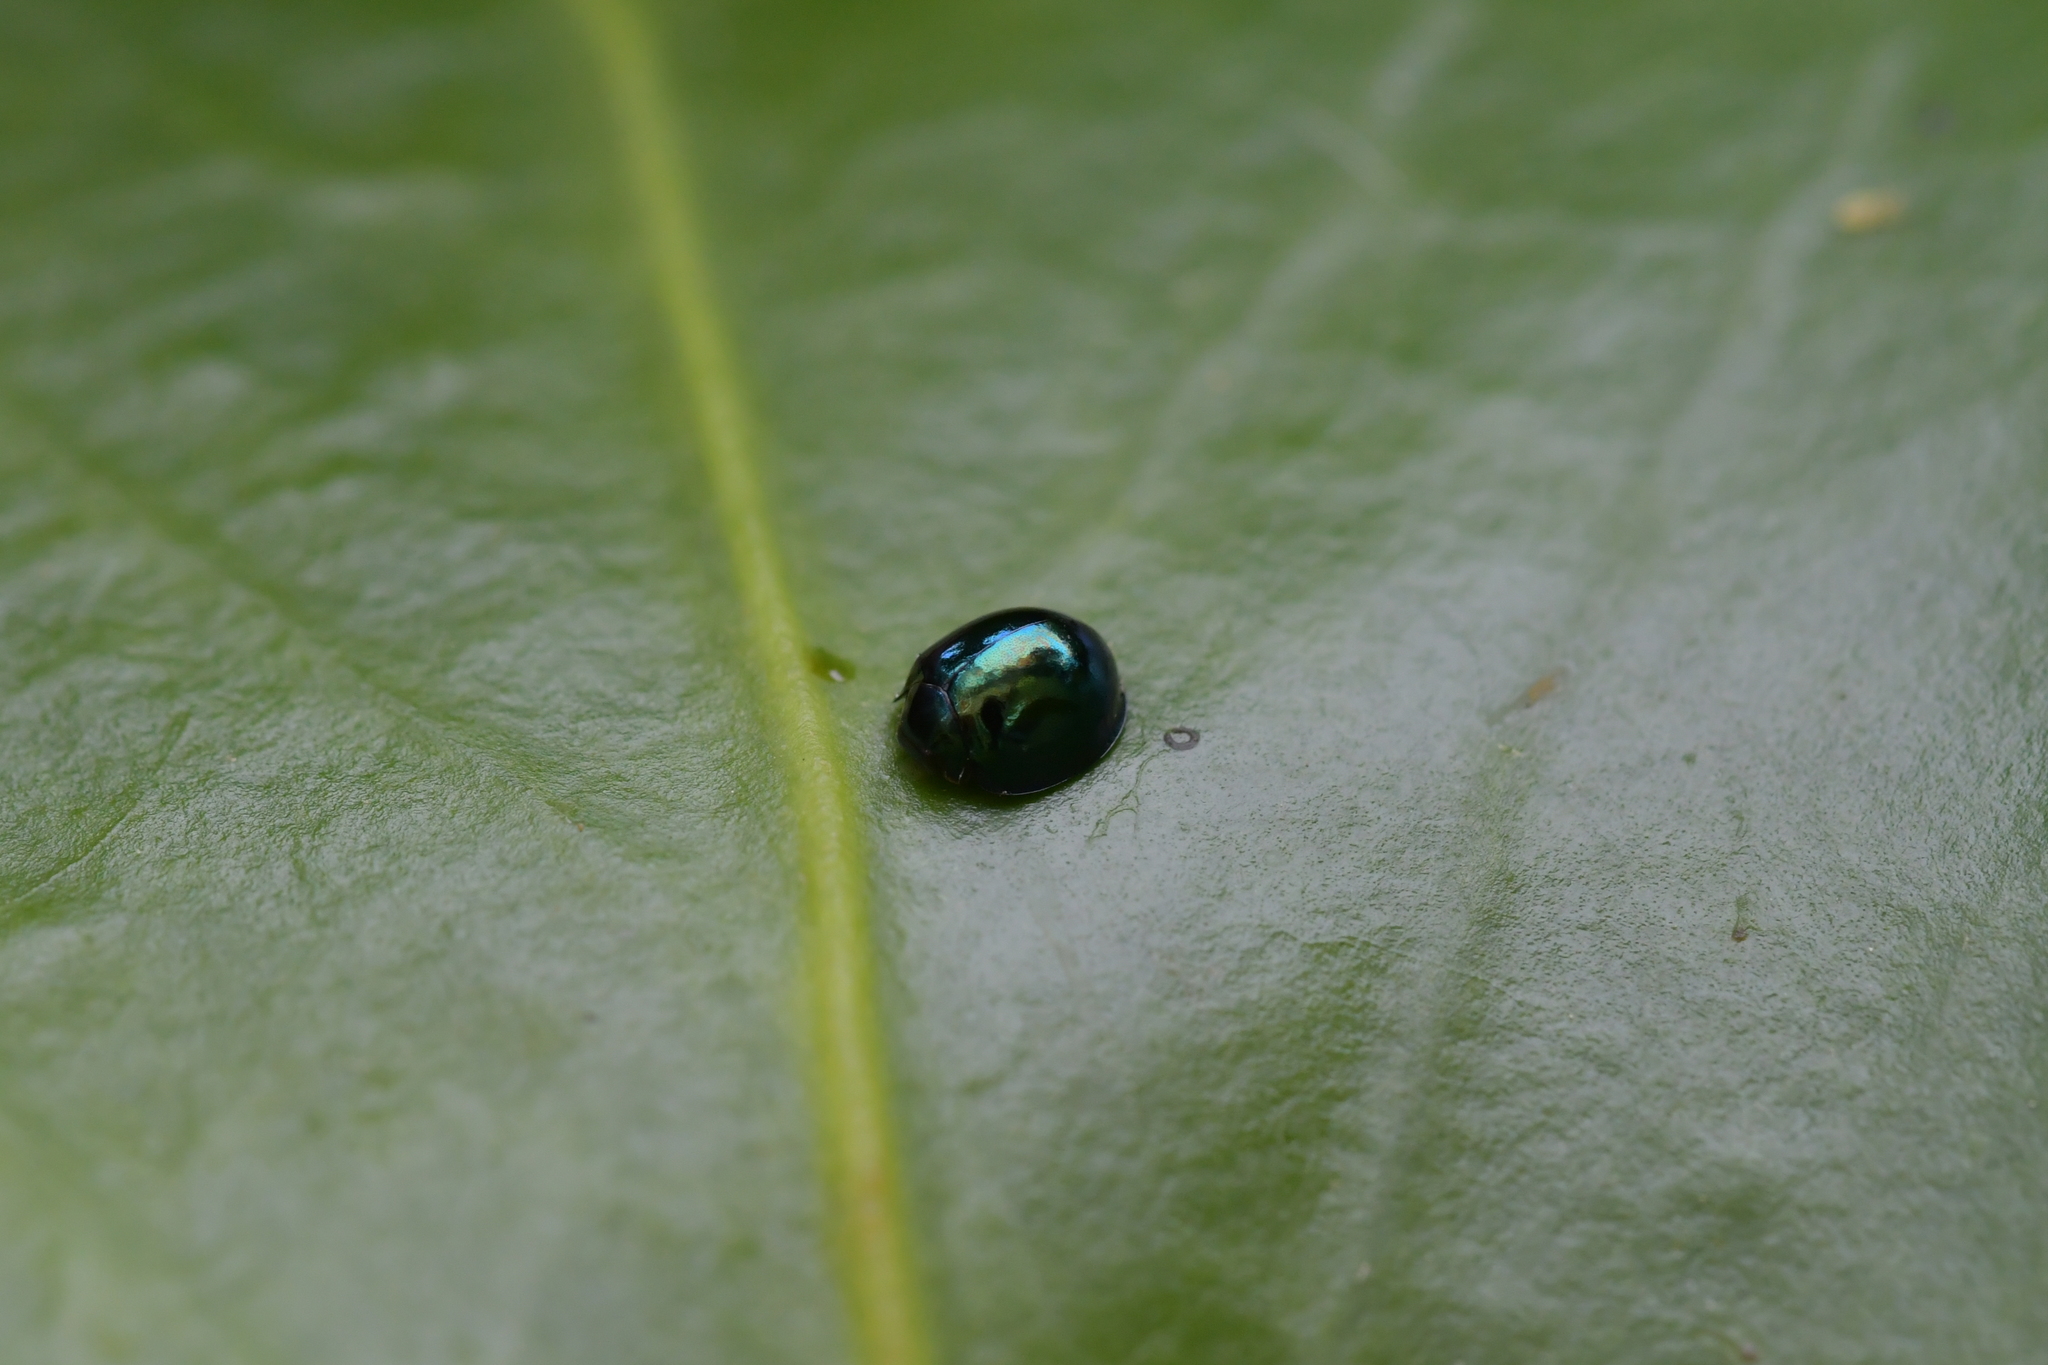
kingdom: Animalia
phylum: Arthropoda
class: Insecta
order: Coleoptera
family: Coccinellidae
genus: Halmus
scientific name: Halmus chalybeus
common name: Steel blue ladybird beetle
